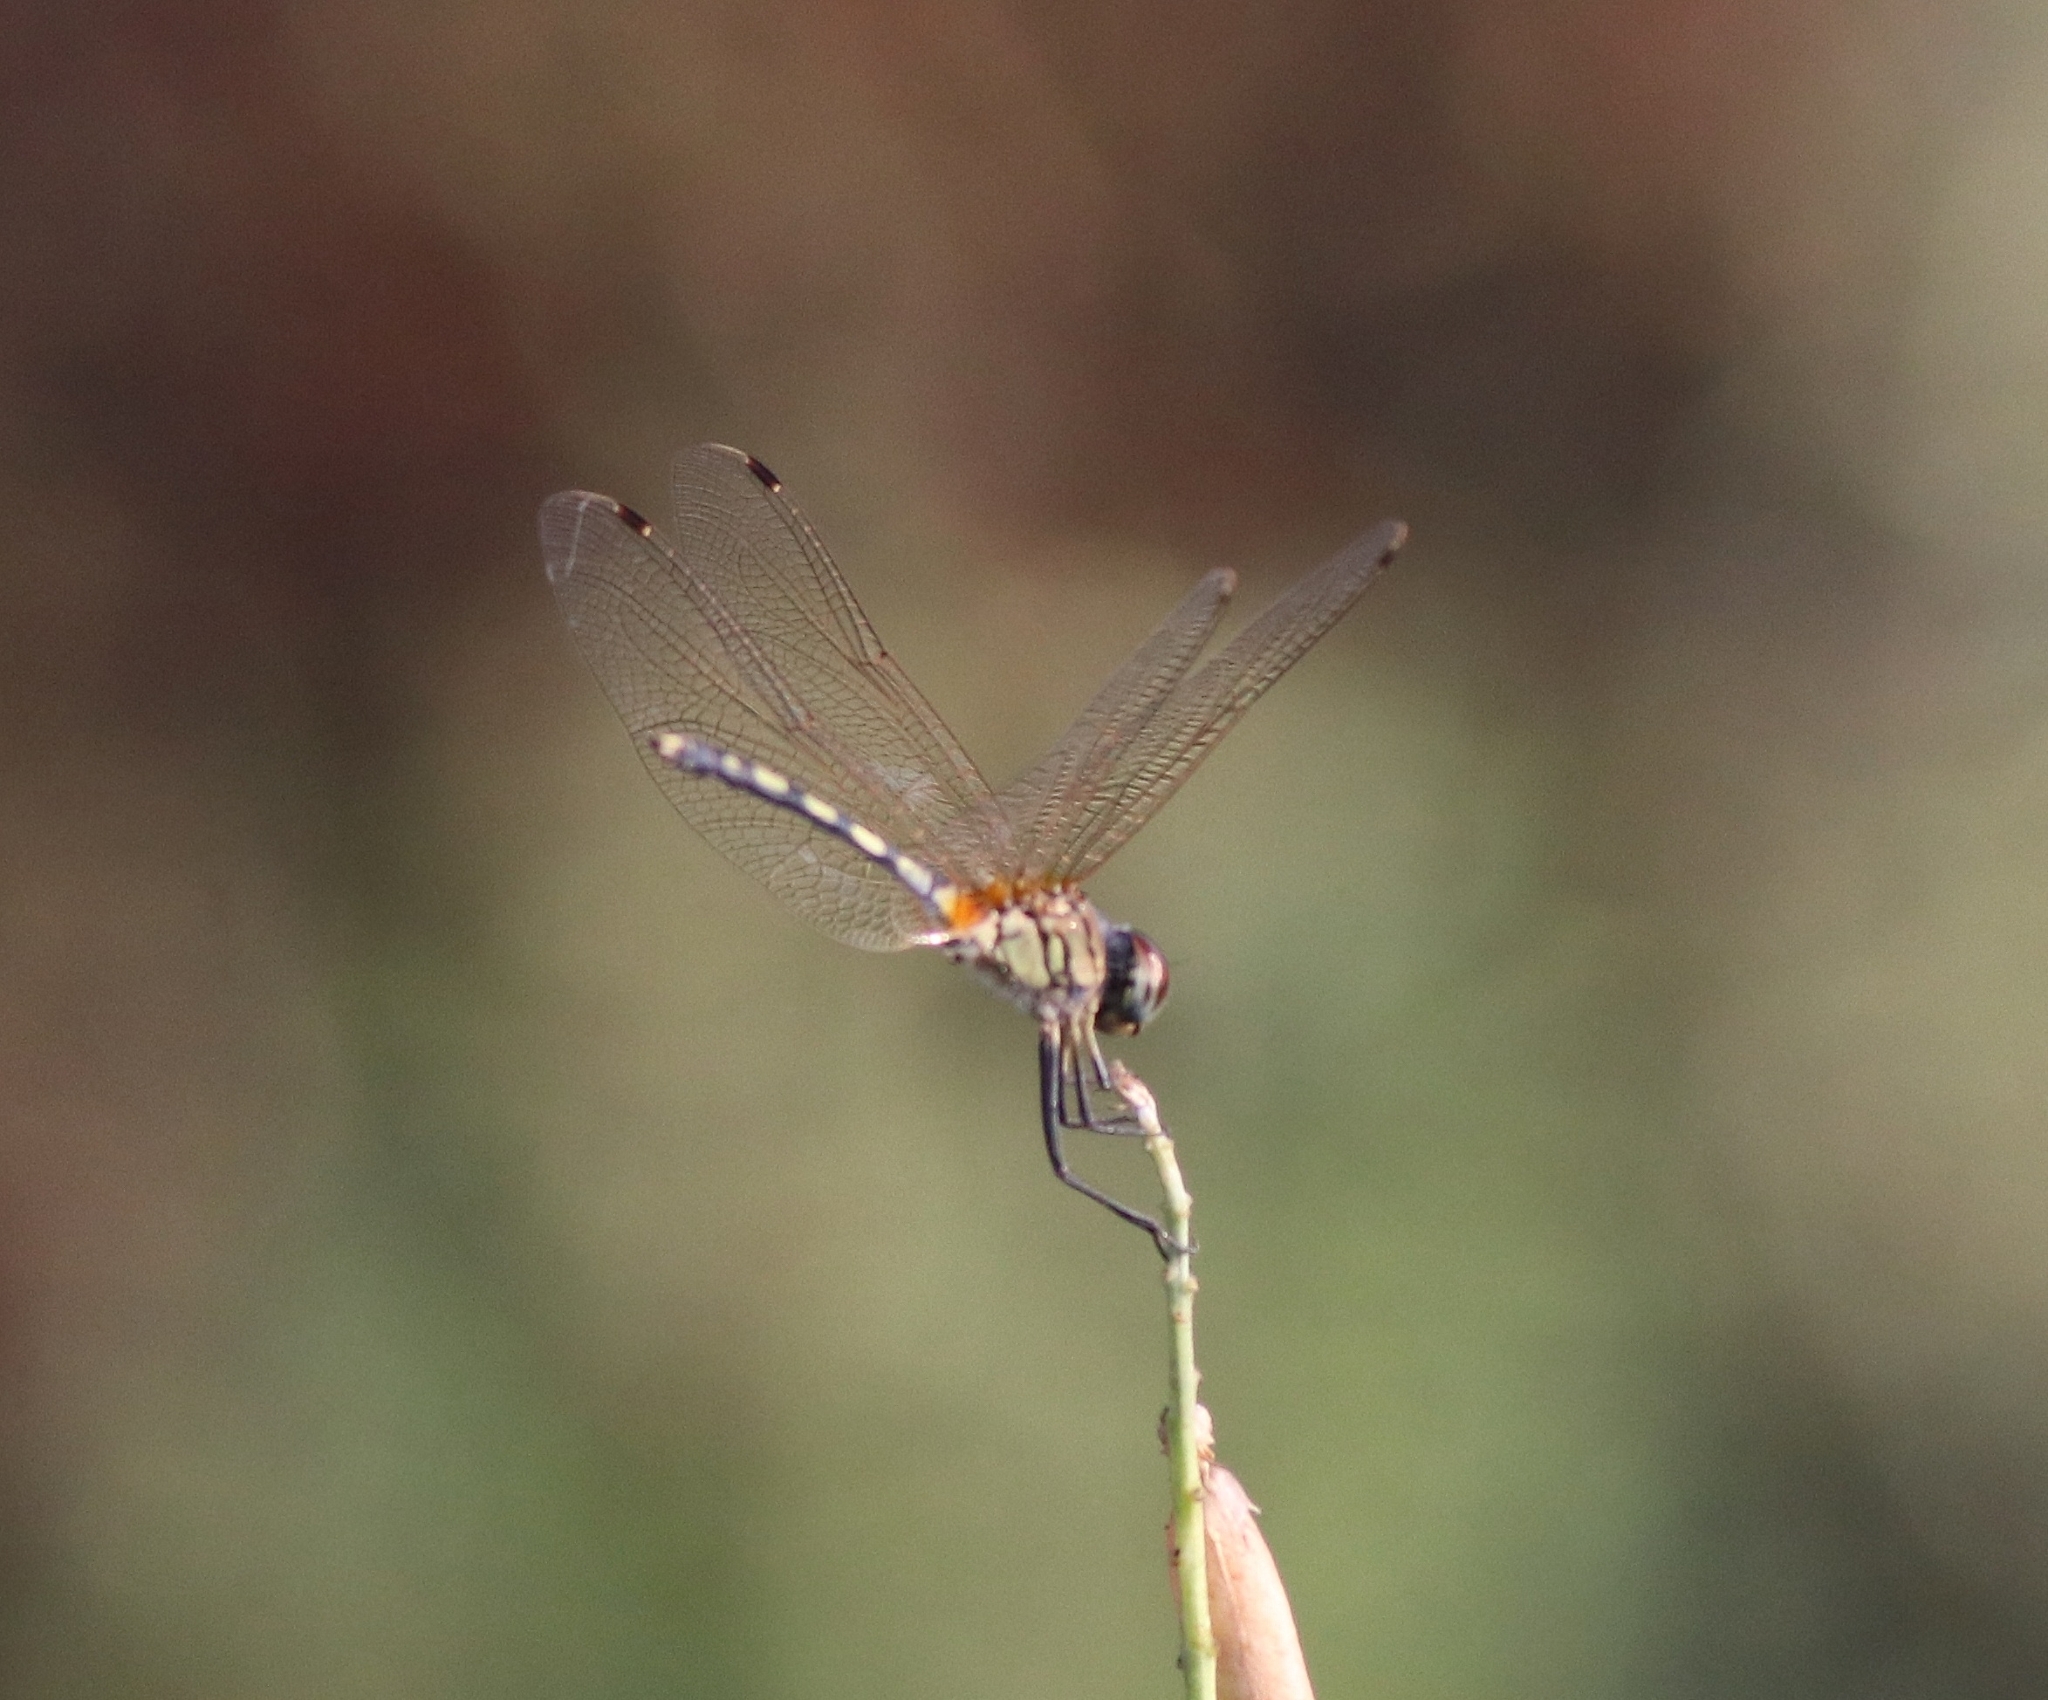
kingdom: Animalia
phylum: Arthropoda
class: Insecta
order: Odonata
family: Libellulidae
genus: Trithemis
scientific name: Trithemis pallidinervis
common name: Dancing dropwing
